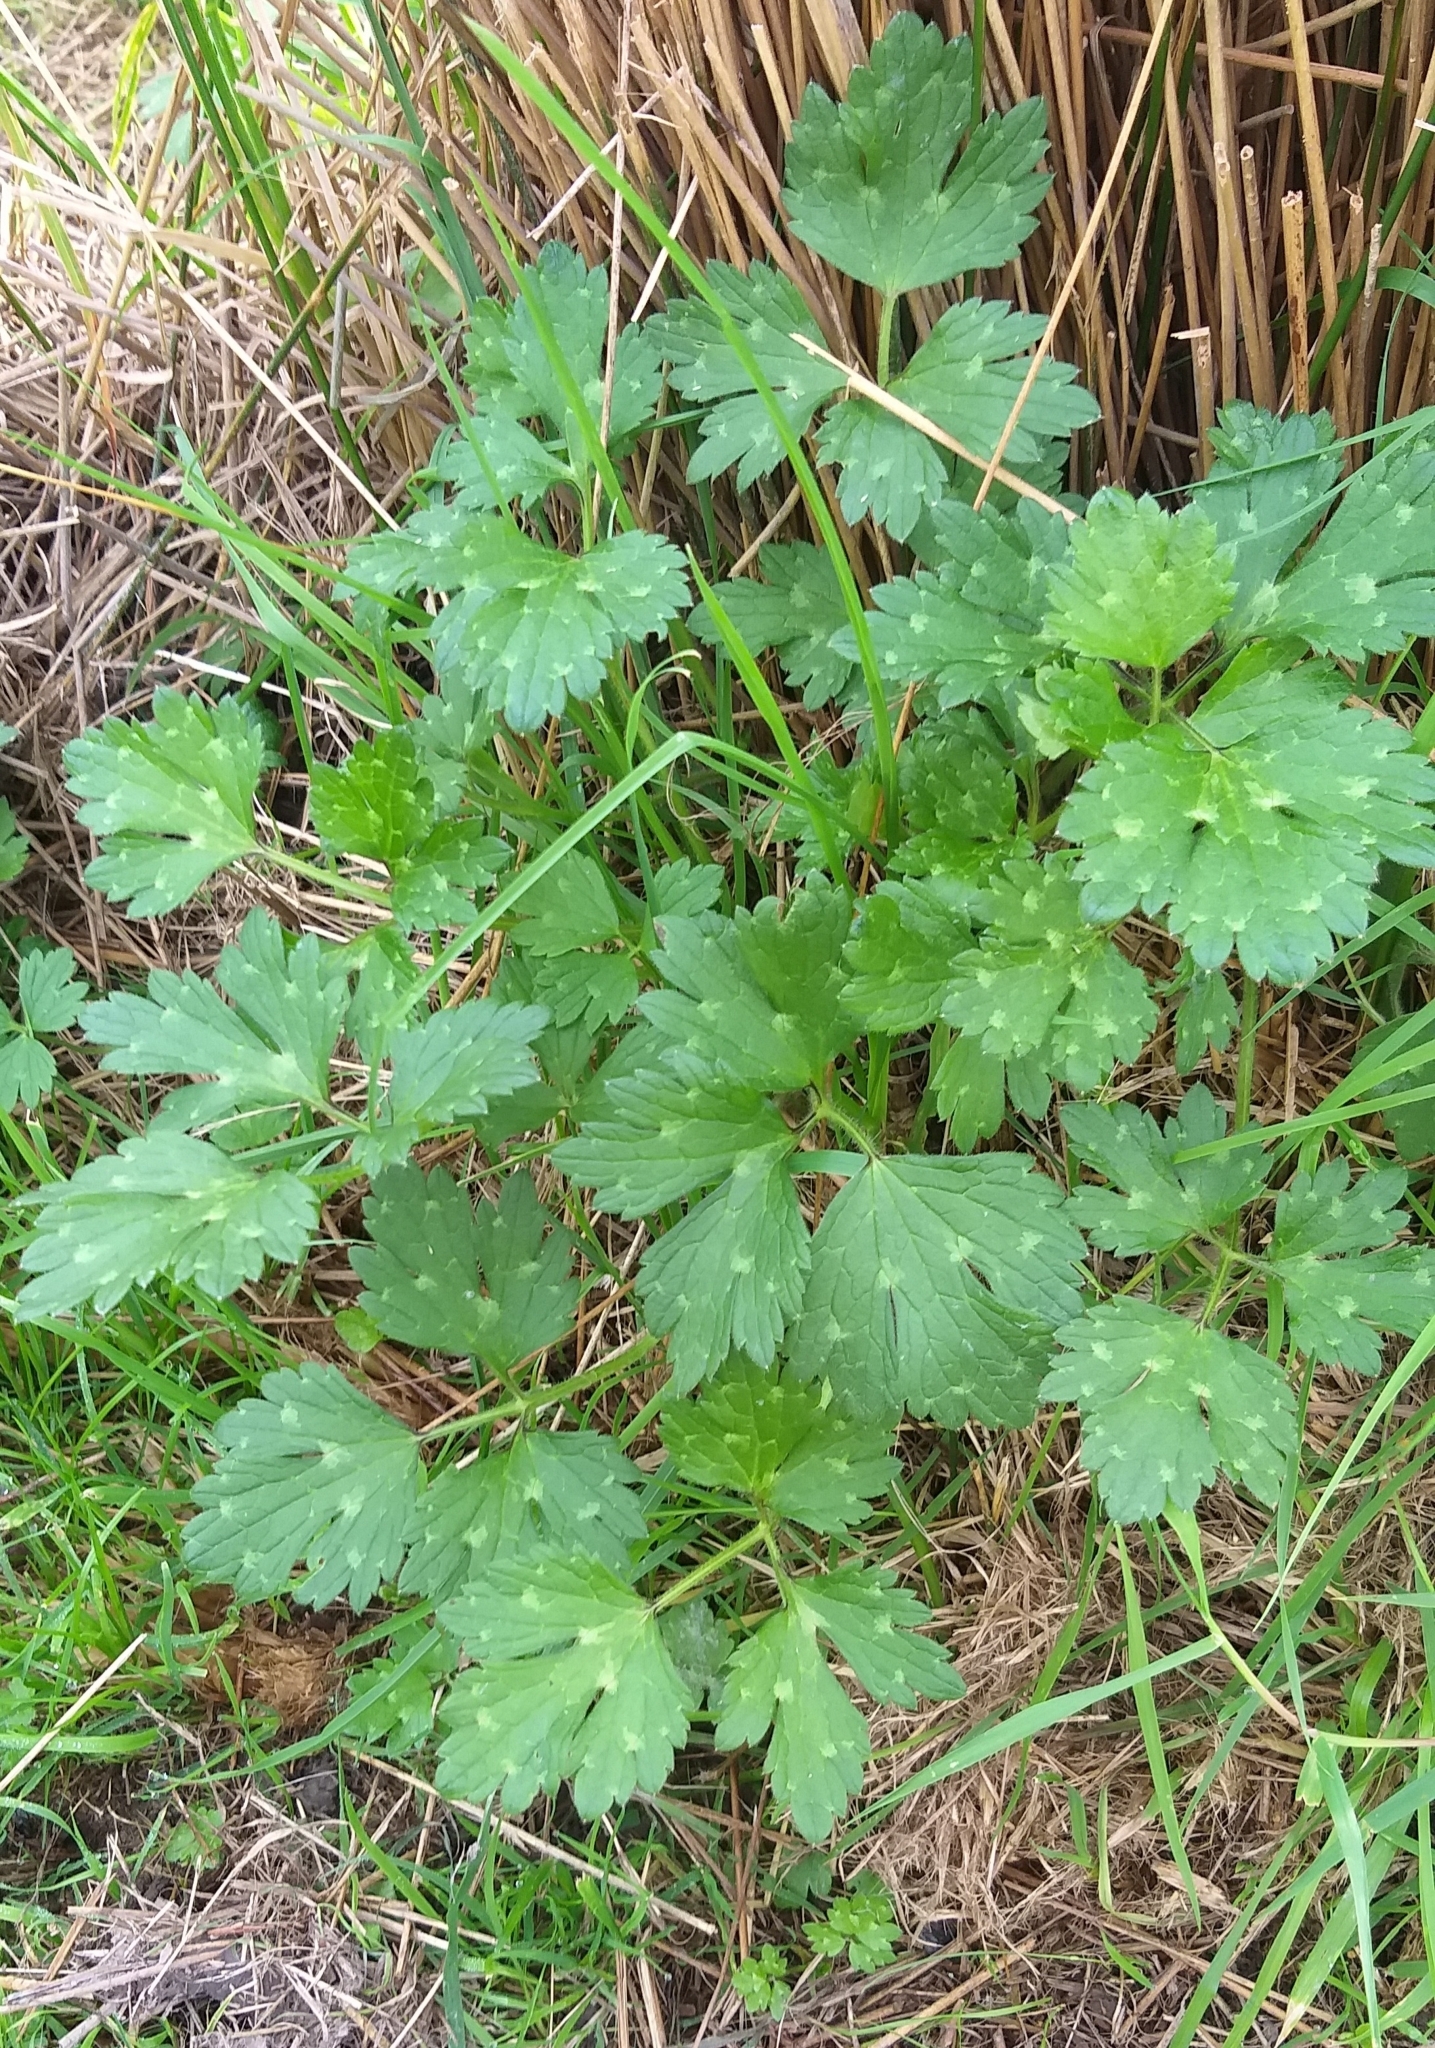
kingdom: Plantae
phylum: Tracheophyta
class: Magnoliopsida
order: Ranunculales
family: Ranunculaceae
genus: Ranunculus
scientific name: Ranunculus repens
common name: Creeping buttercup
